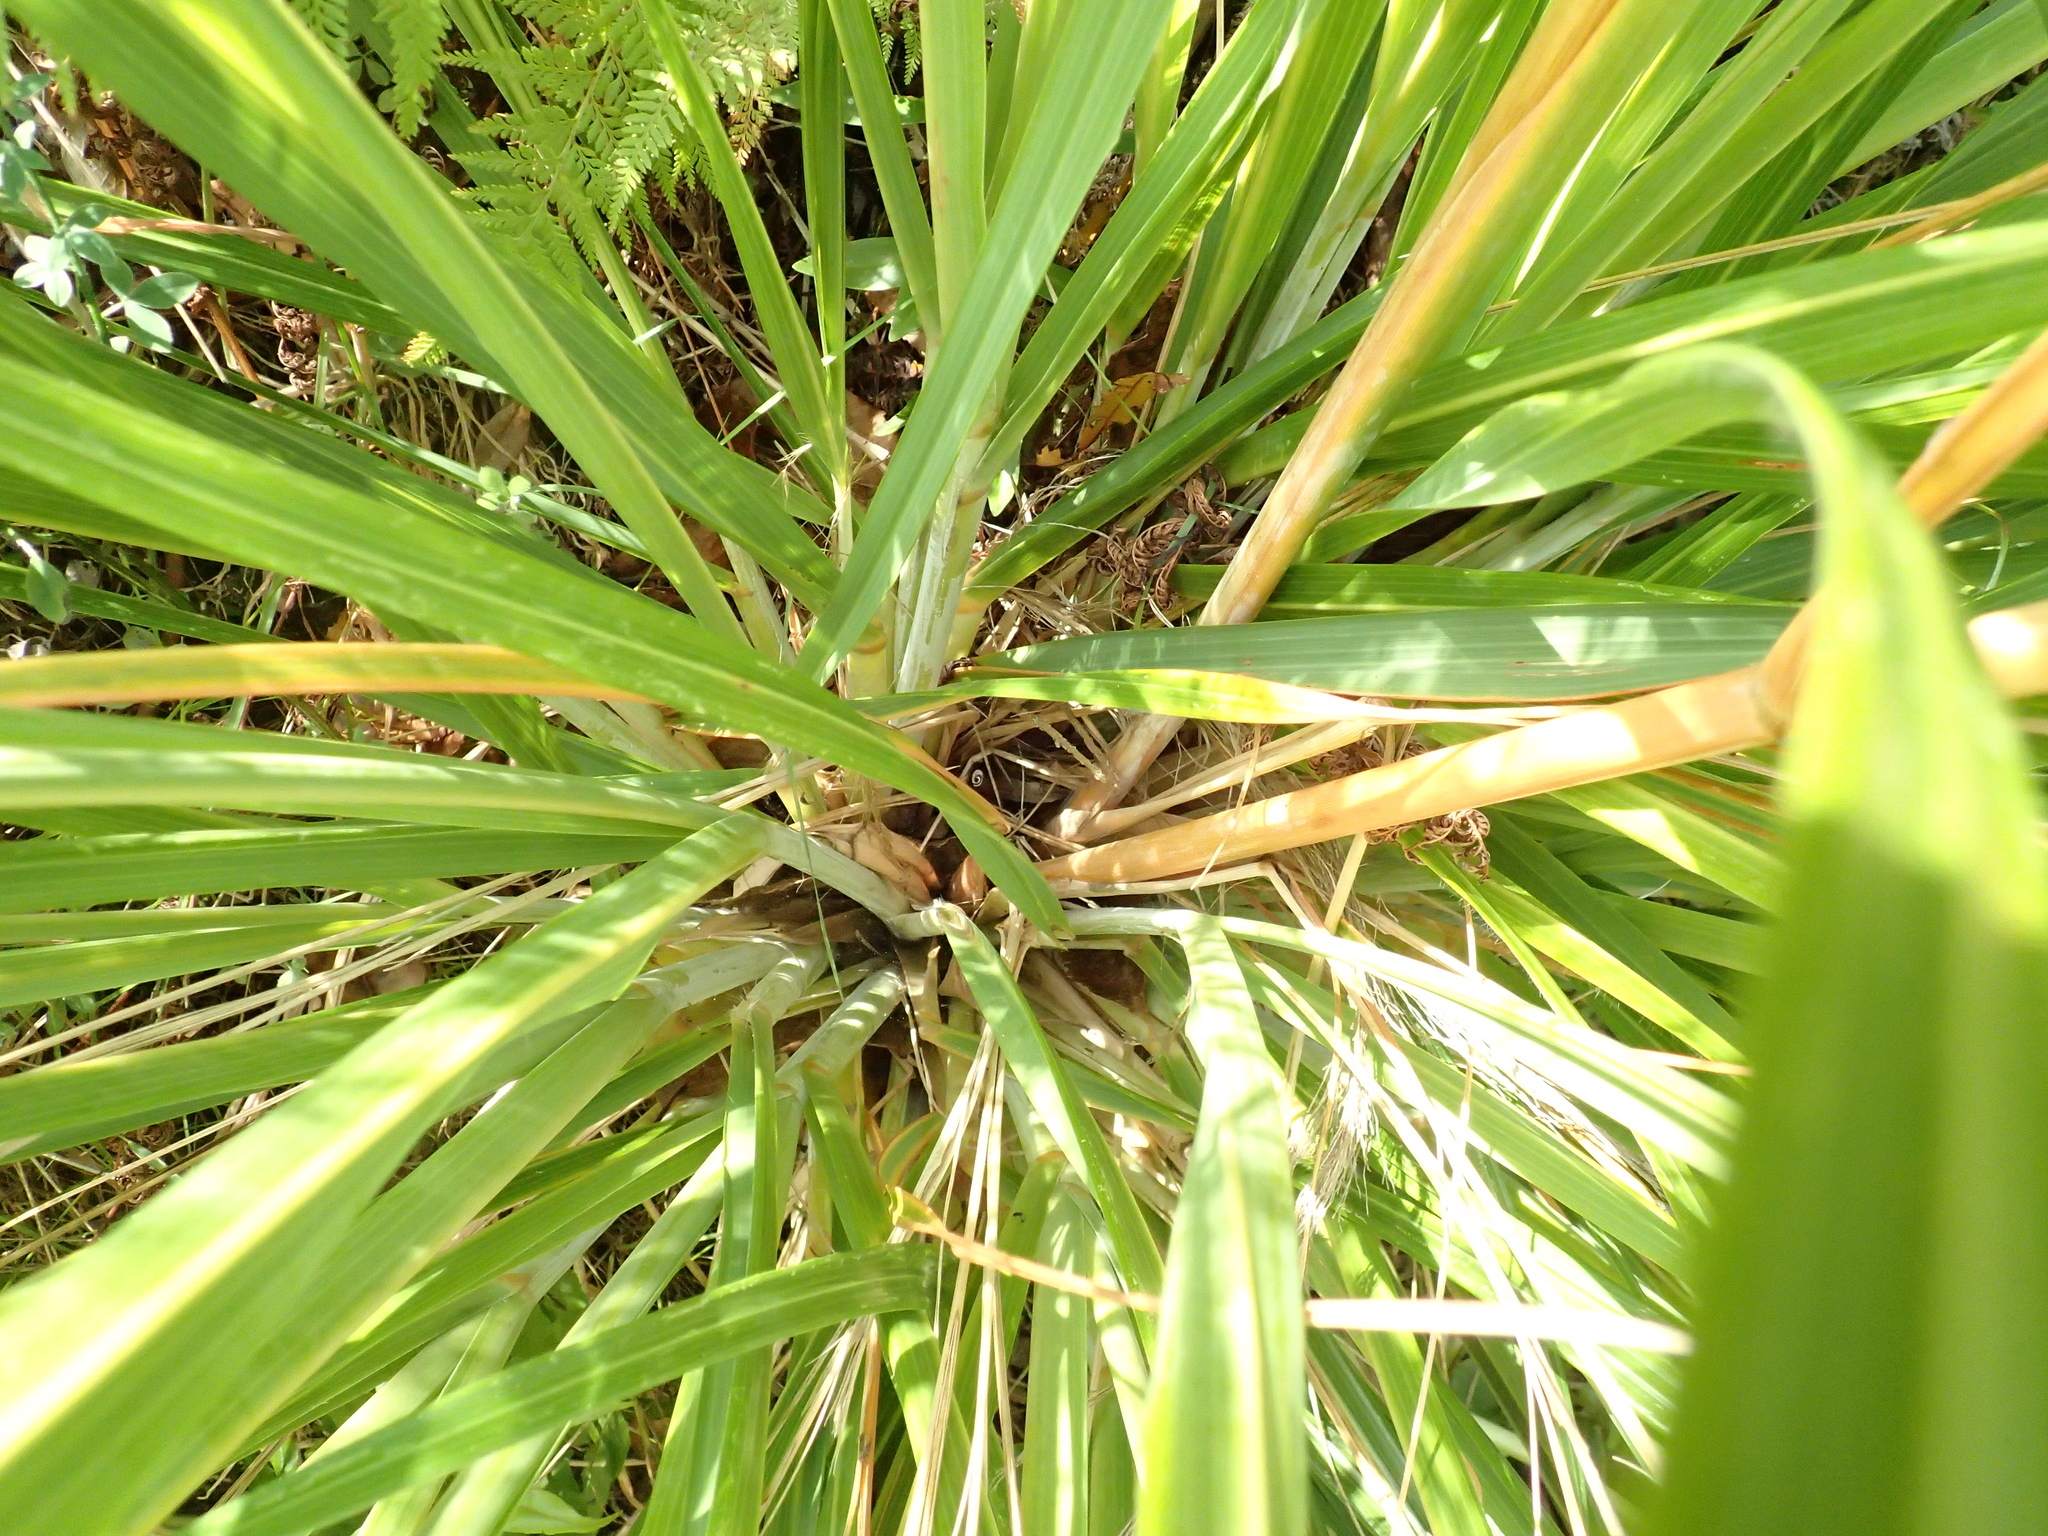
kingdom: Plantae
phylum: Tracheophyta
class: Liliopsida
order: Poales
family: Poaceae
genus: Austroderia
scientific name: Austroderia fulvida
